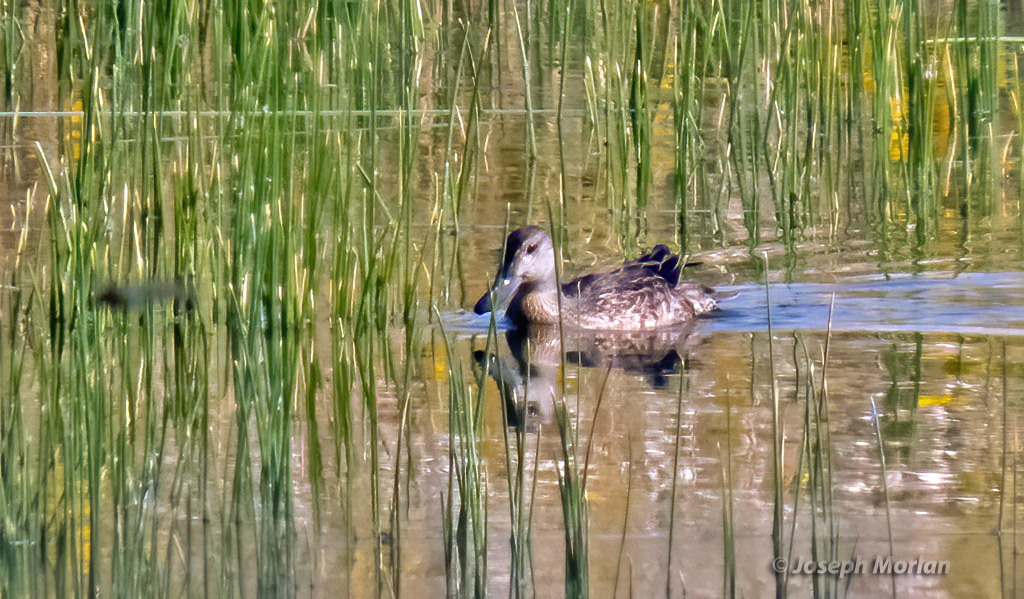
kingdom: Animalia
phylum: Chordata
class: Aves
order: Anseriformes
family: Anatidae
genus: Spatula
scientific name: Spatula cyanoptera
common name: Cinnamon teal
